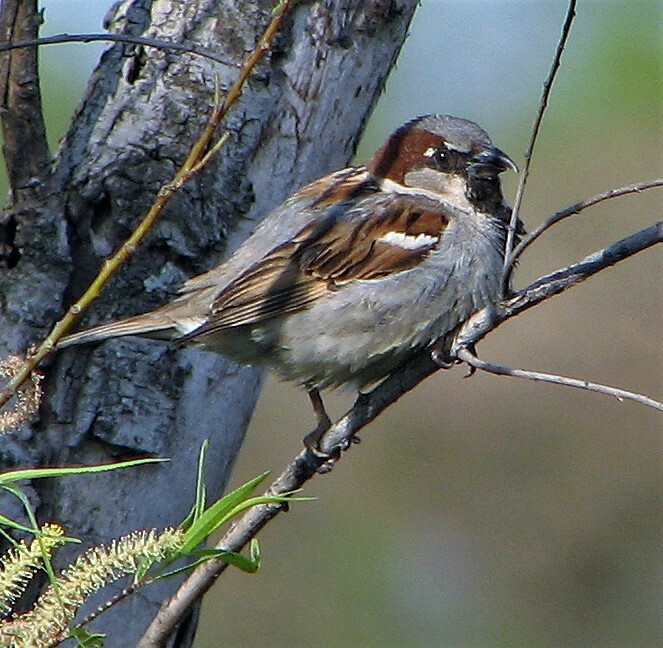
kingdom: Animalia
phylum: Chordata
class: Aves
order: Passeriformes
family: Passeridae
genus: Passer
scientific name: Passer domesticus
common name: House sparrow
